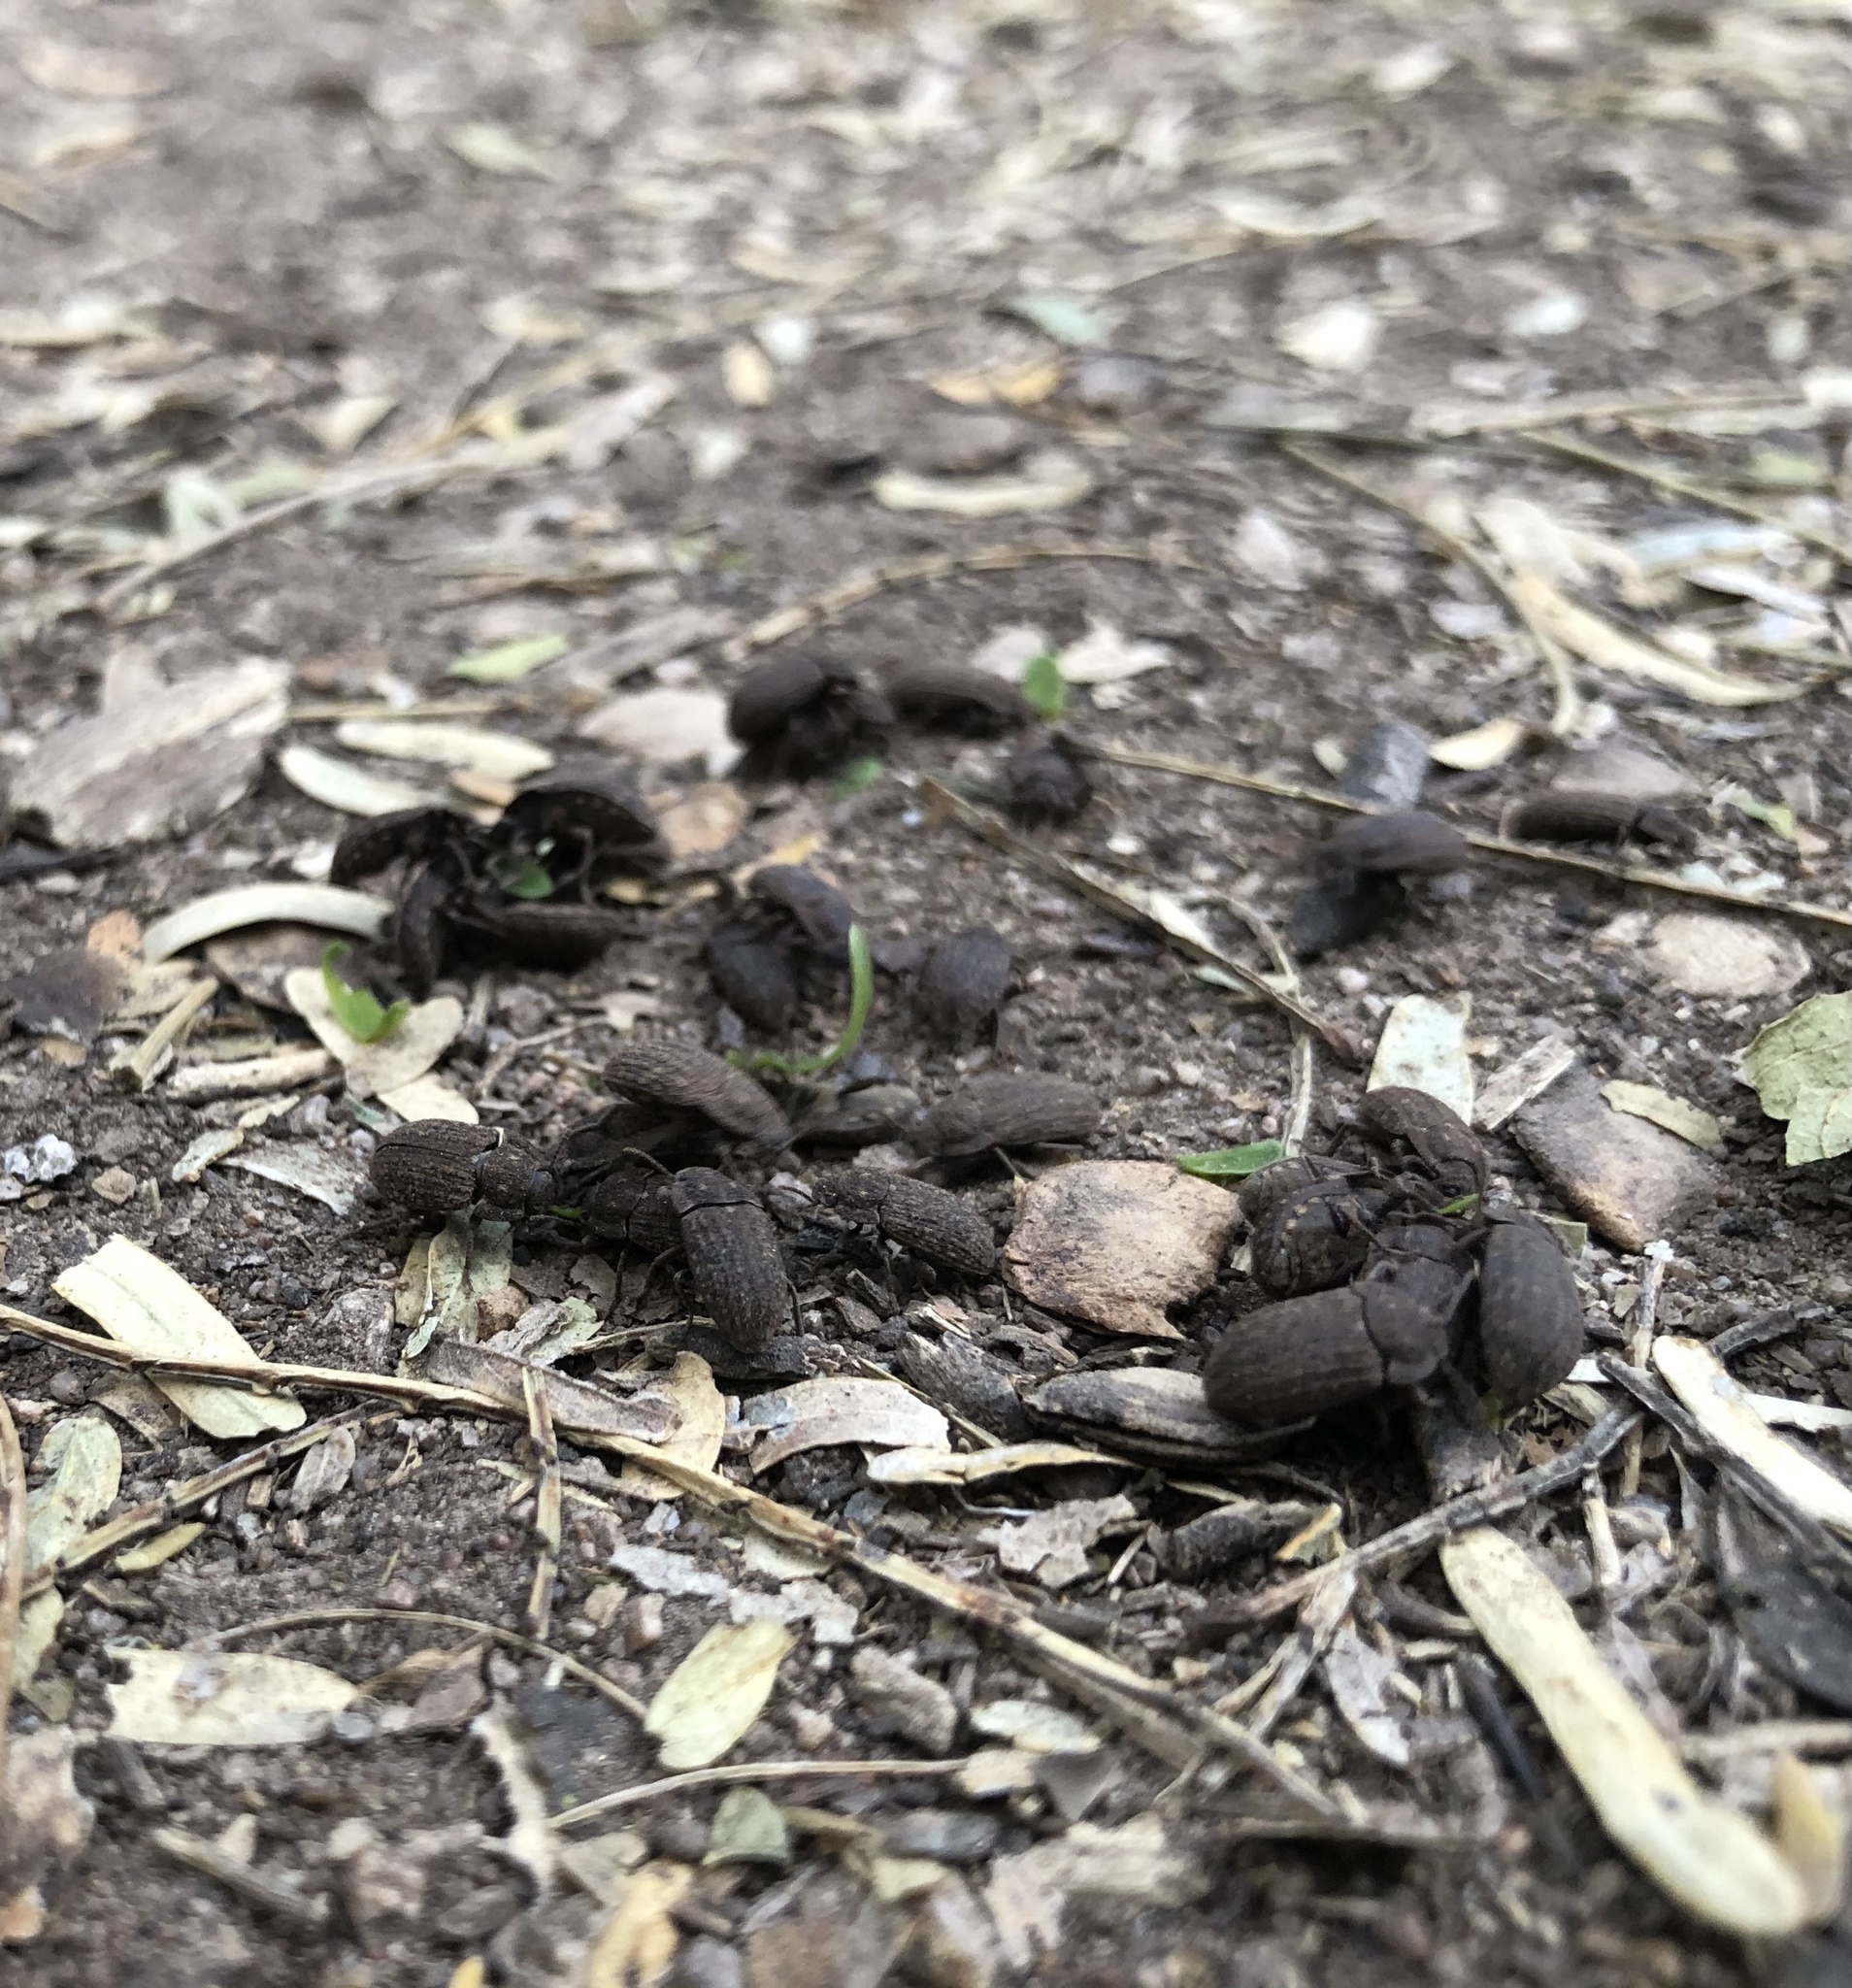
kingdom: Animalia
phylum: Arthropoda
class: Insecta
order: Coleoptera
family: Tenebrionidae
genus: Trichoton
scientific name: Trichoton sordidum
